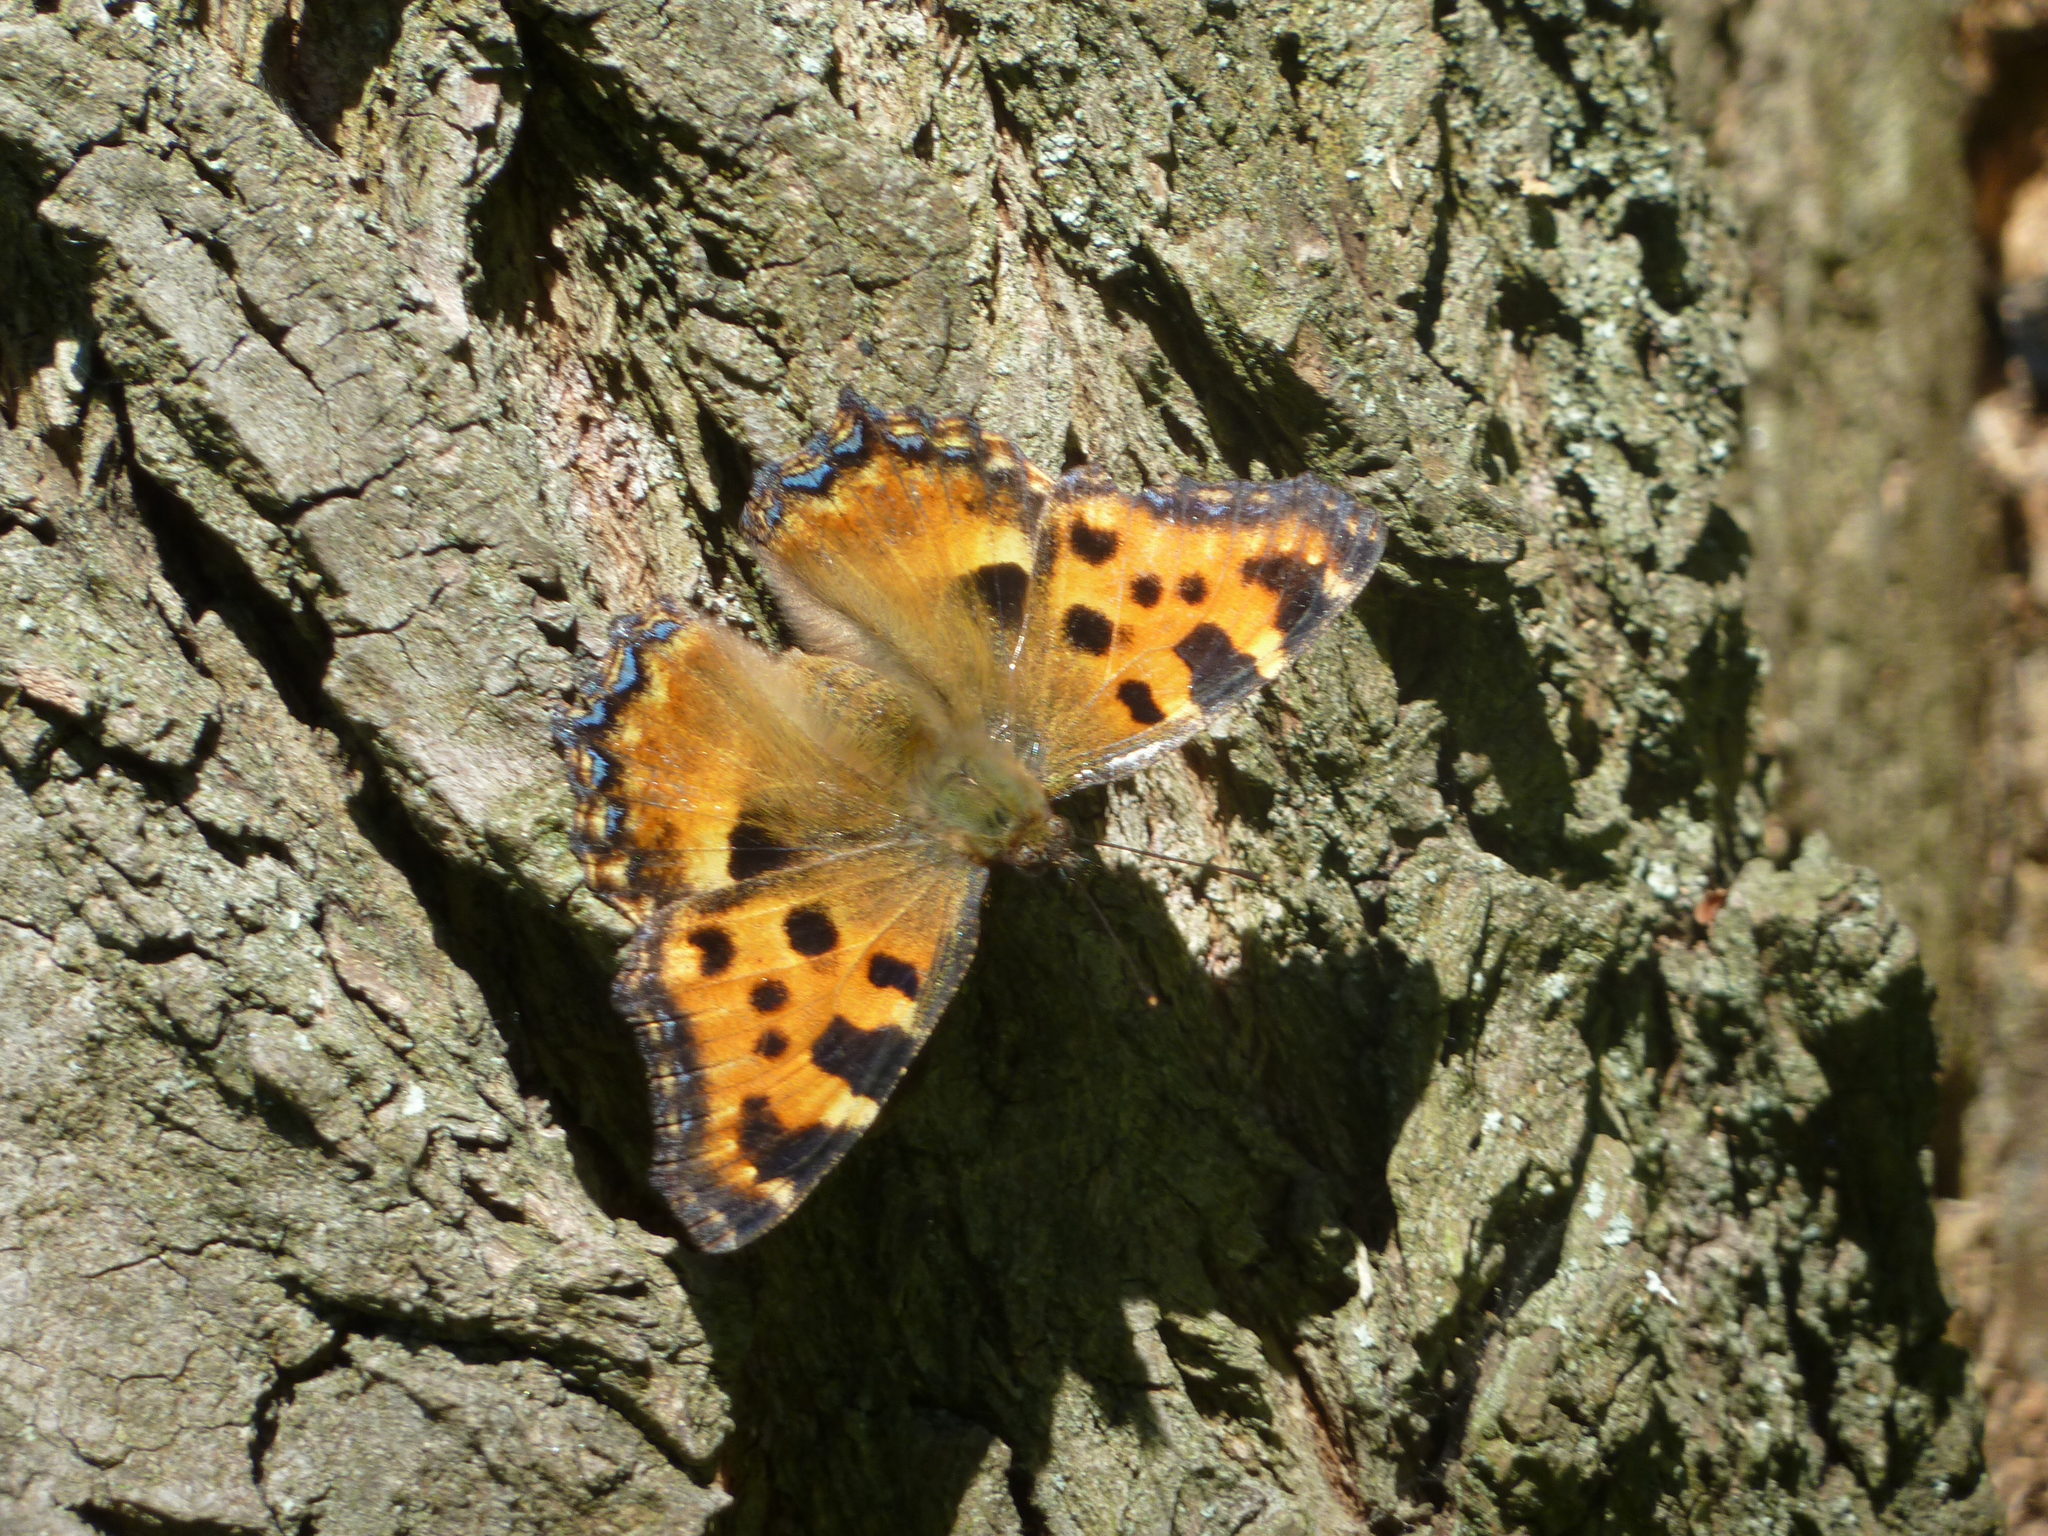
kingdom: Animalia
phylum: Arthropoda
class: Insecta
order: Lepidoptera
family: Nymphalidae
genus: Nymphalis
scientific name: Nymphalis polychloros
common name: Large tortoiseshell
